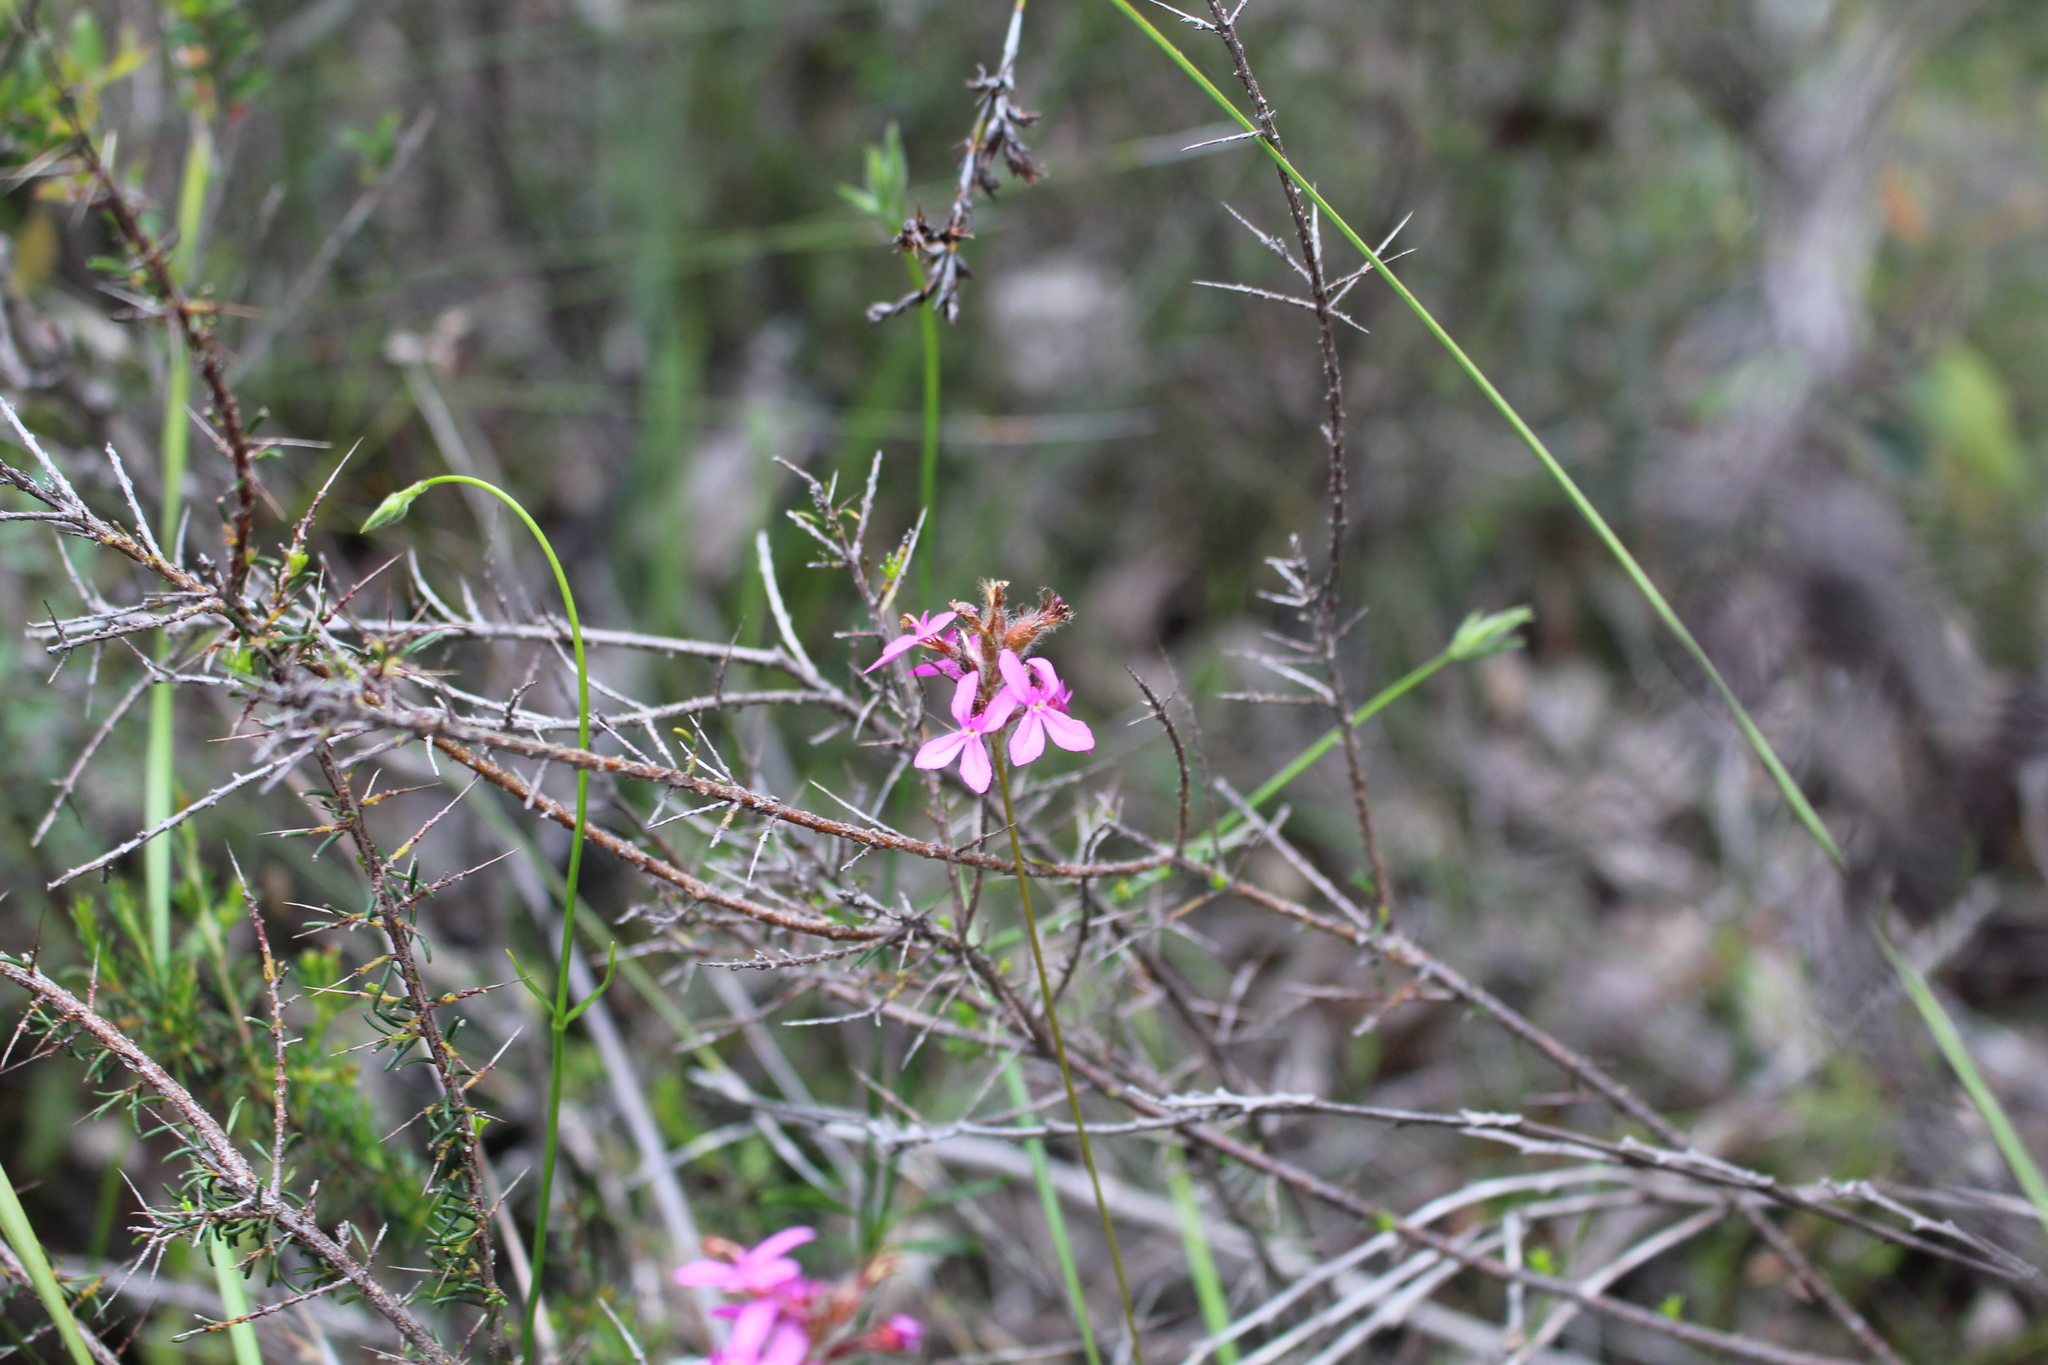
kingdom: Plantae
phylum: Tracheophyta
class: Magnoliopsida
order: Asterales
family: Stylidiaceae
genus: Stylidium
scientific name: Stylidium hirsutum
